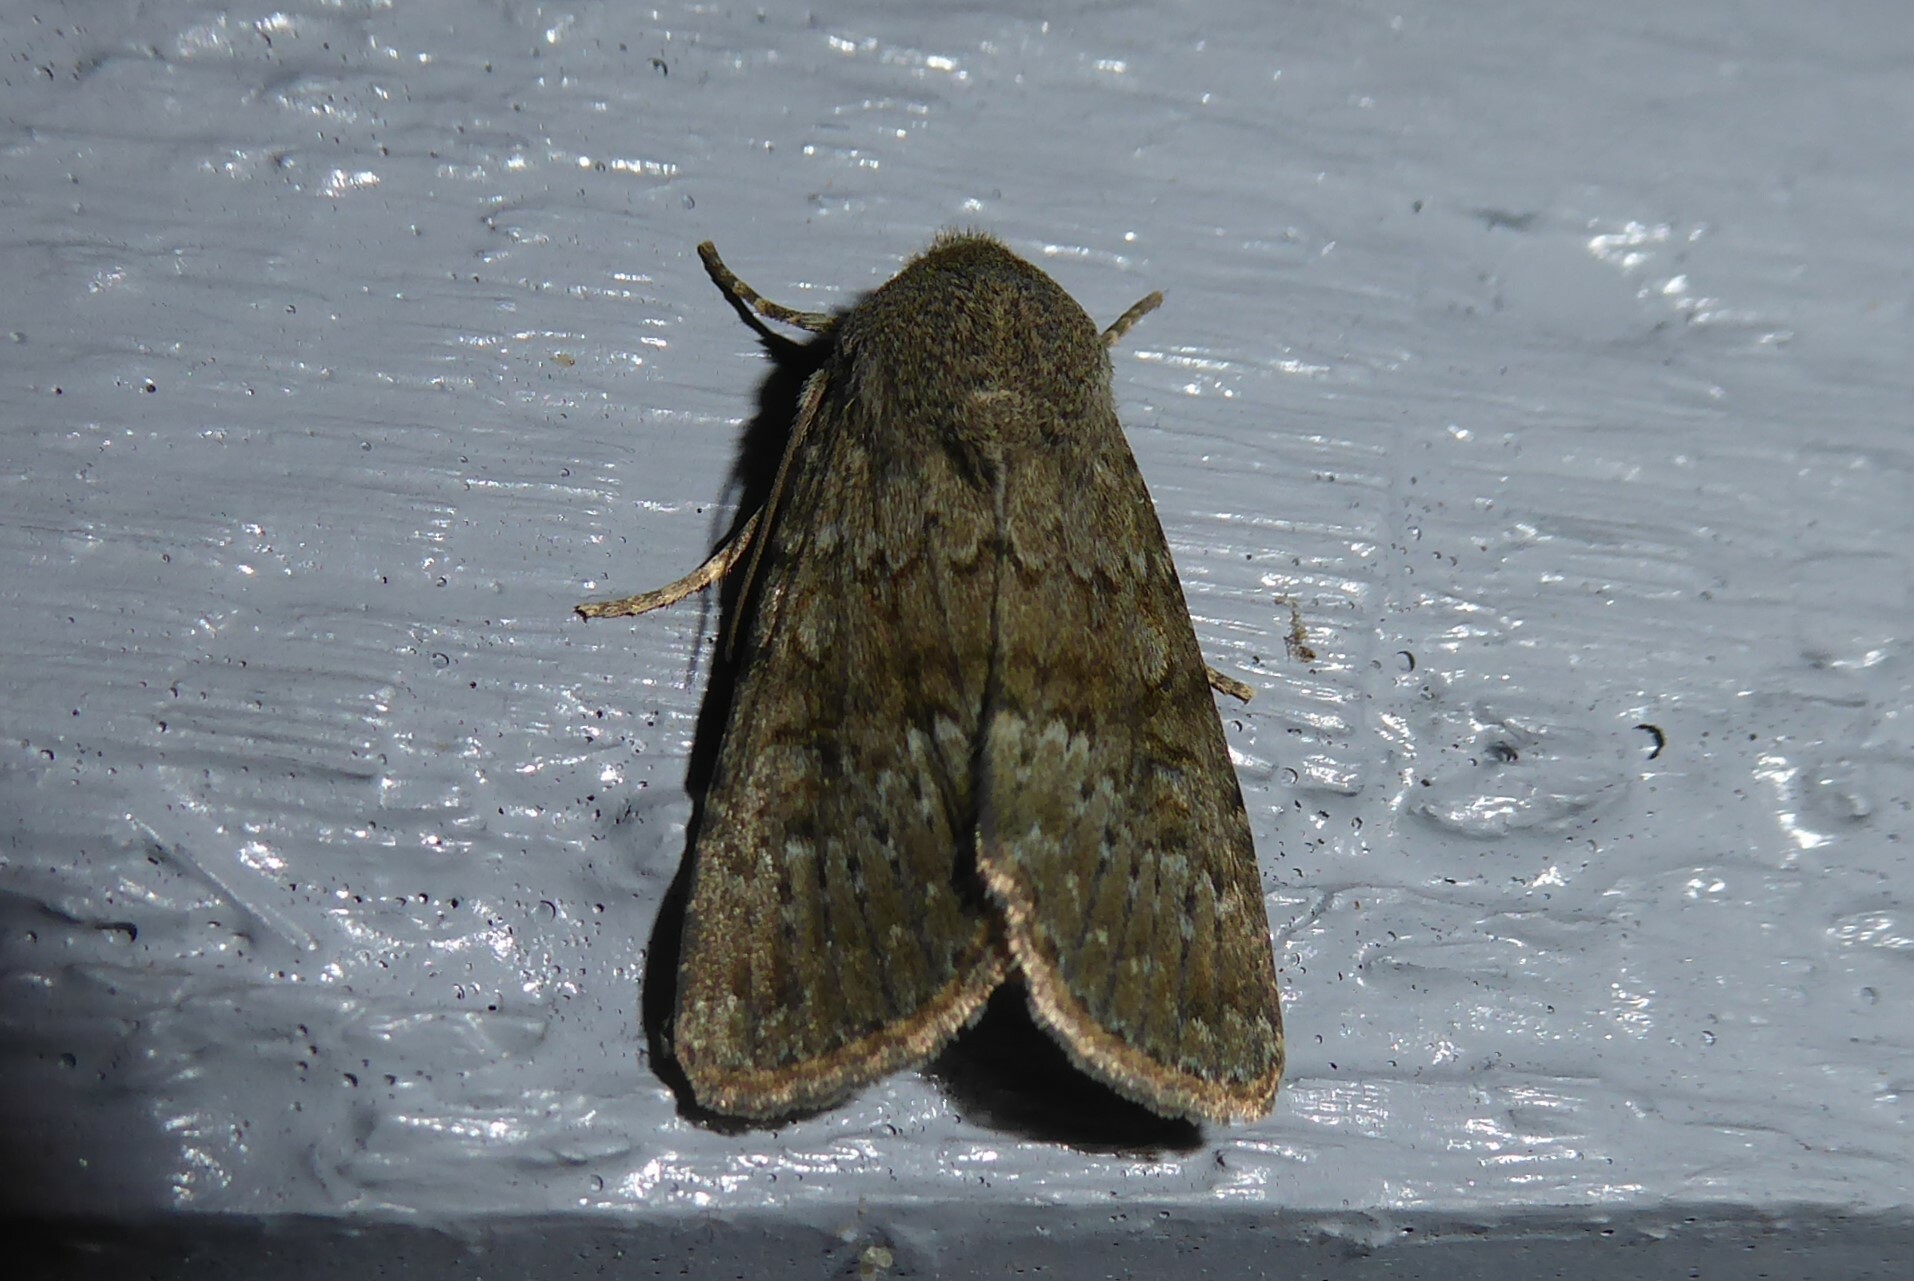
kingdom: Animalia
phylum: Arthropoda
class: Insecta
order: Lepidoptera
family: Noctuidae
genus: Ichneutica
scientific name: Ichneutica moderata
